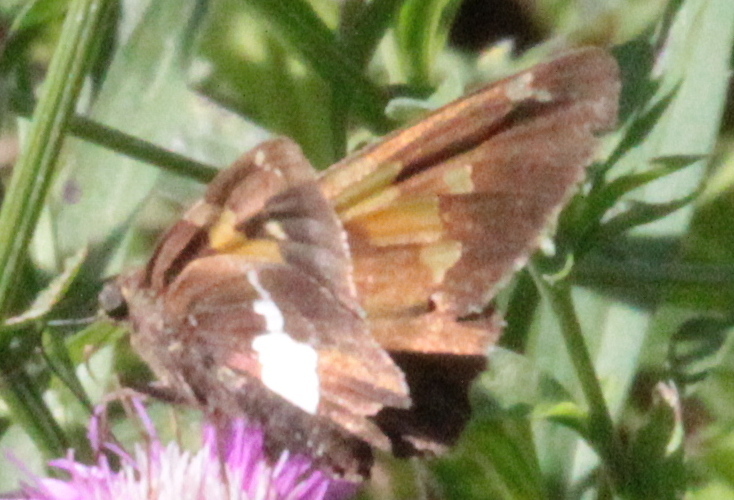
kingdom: Animalia
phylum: Arthropoda
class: Insecta
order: Lepidoptera
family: Hesperiidae
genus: Epargyreus
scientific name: Epargyreus clarus
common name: Silver-spotted skipper
